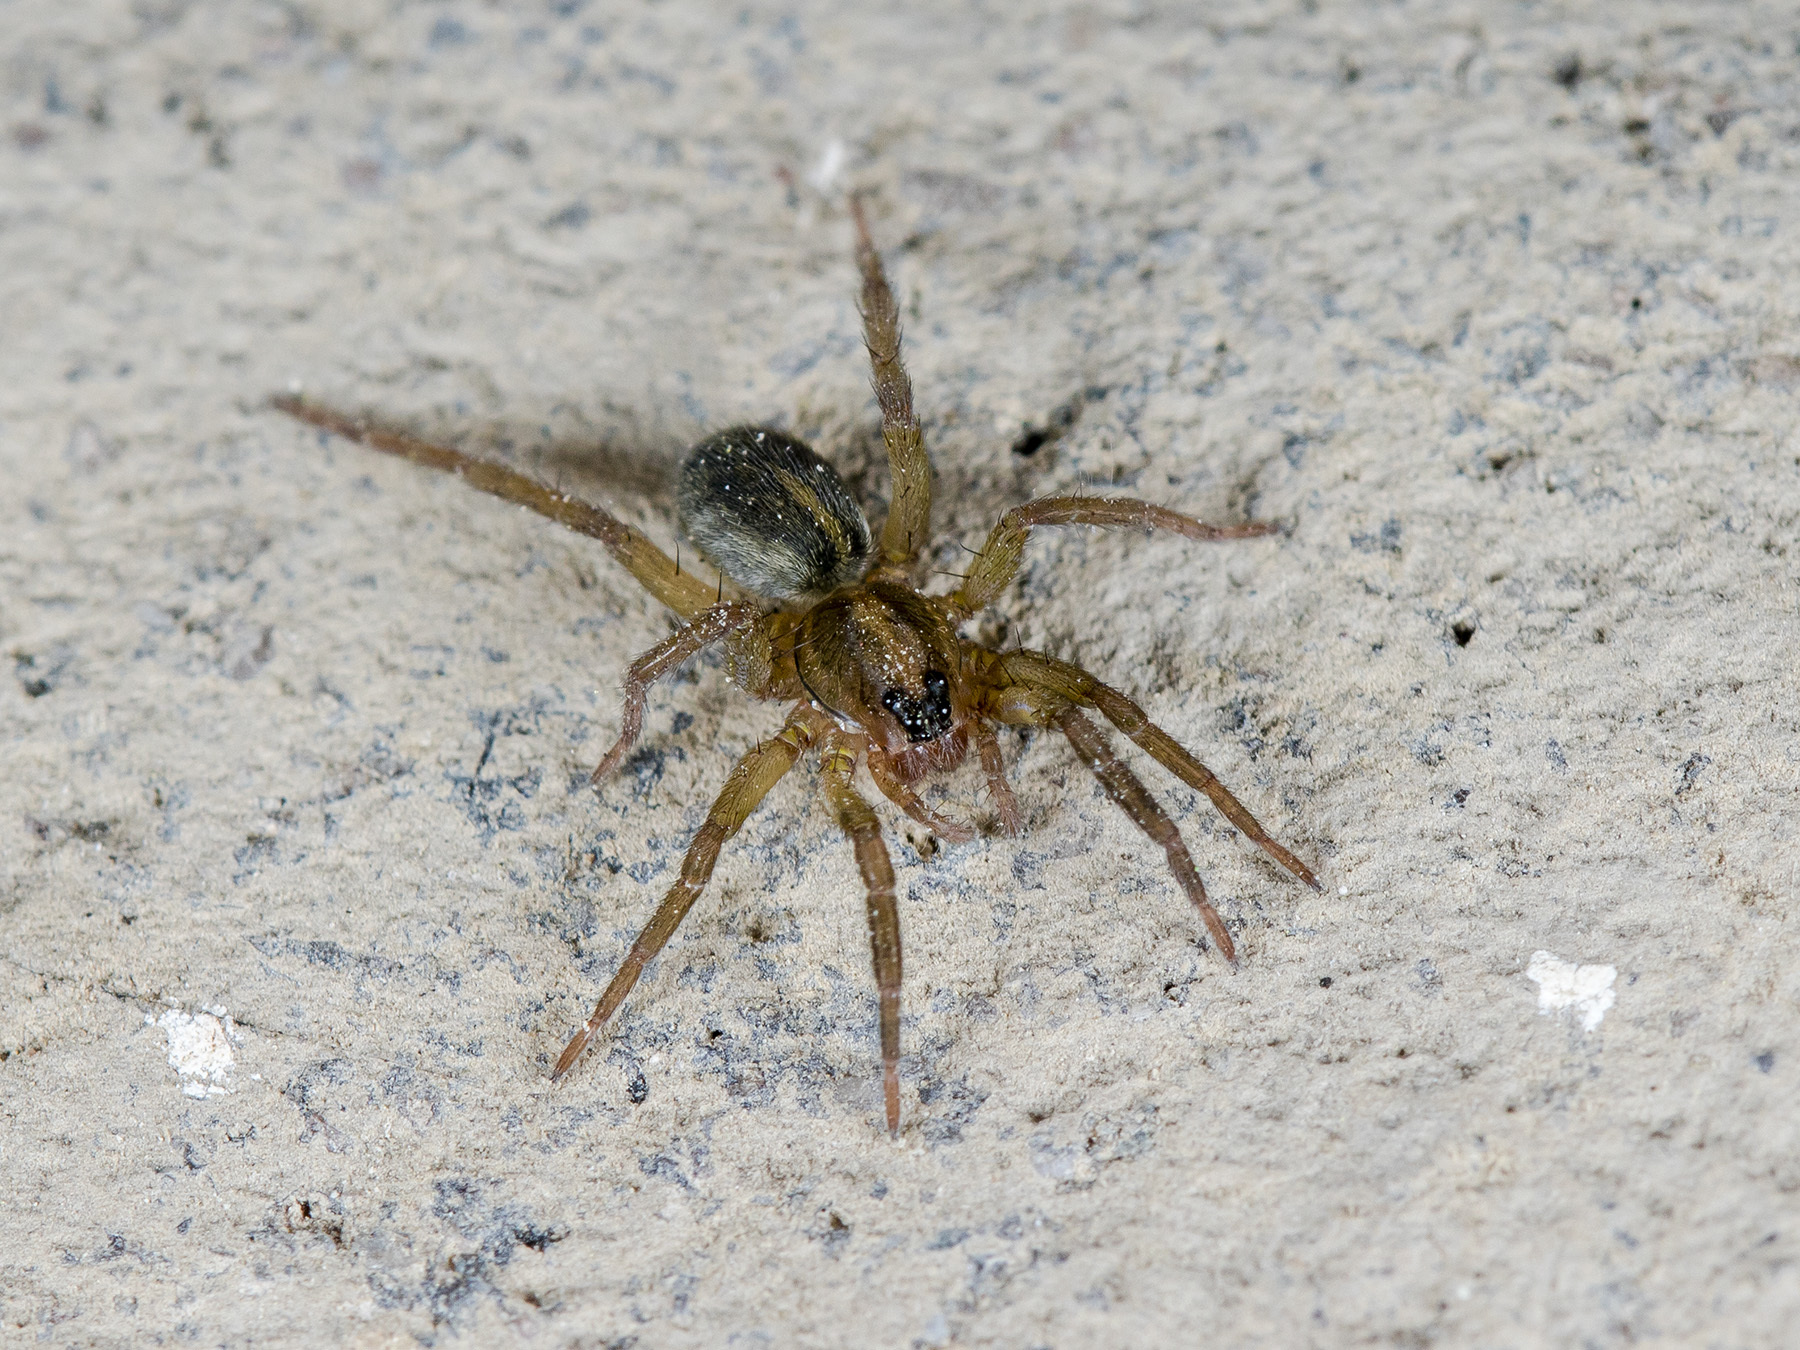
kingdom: Animalia
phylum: Arthropoda
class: Arachnida
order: Araneae
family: Lycosidae
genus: Trochosa
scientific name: Trochosa ruricola
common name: Spider
